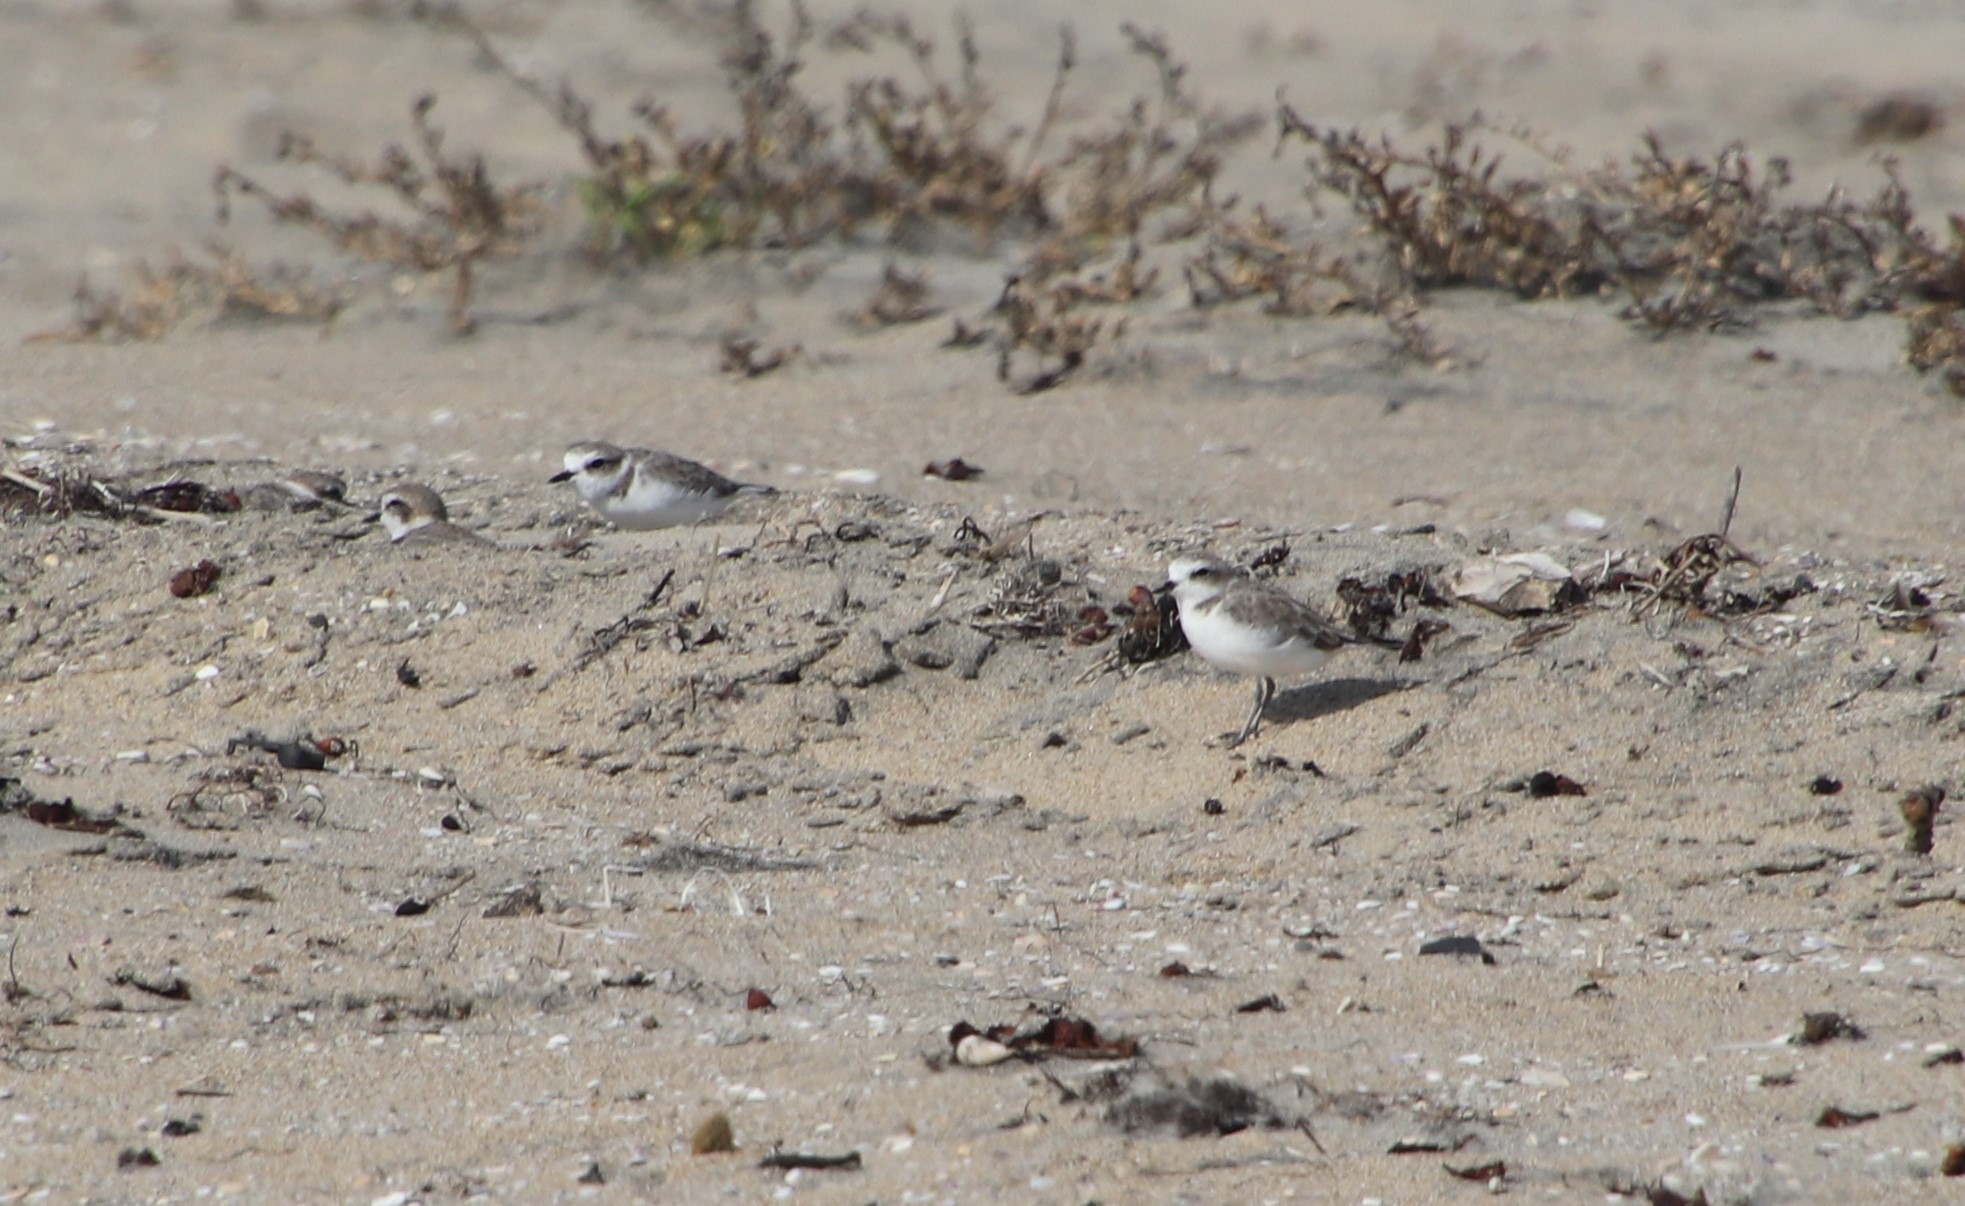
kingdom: Animalia
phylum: Chordata
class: Aves
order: Charadriiformes
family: Charadriidae
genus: Anarhynchus
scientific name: Anarhynchus
